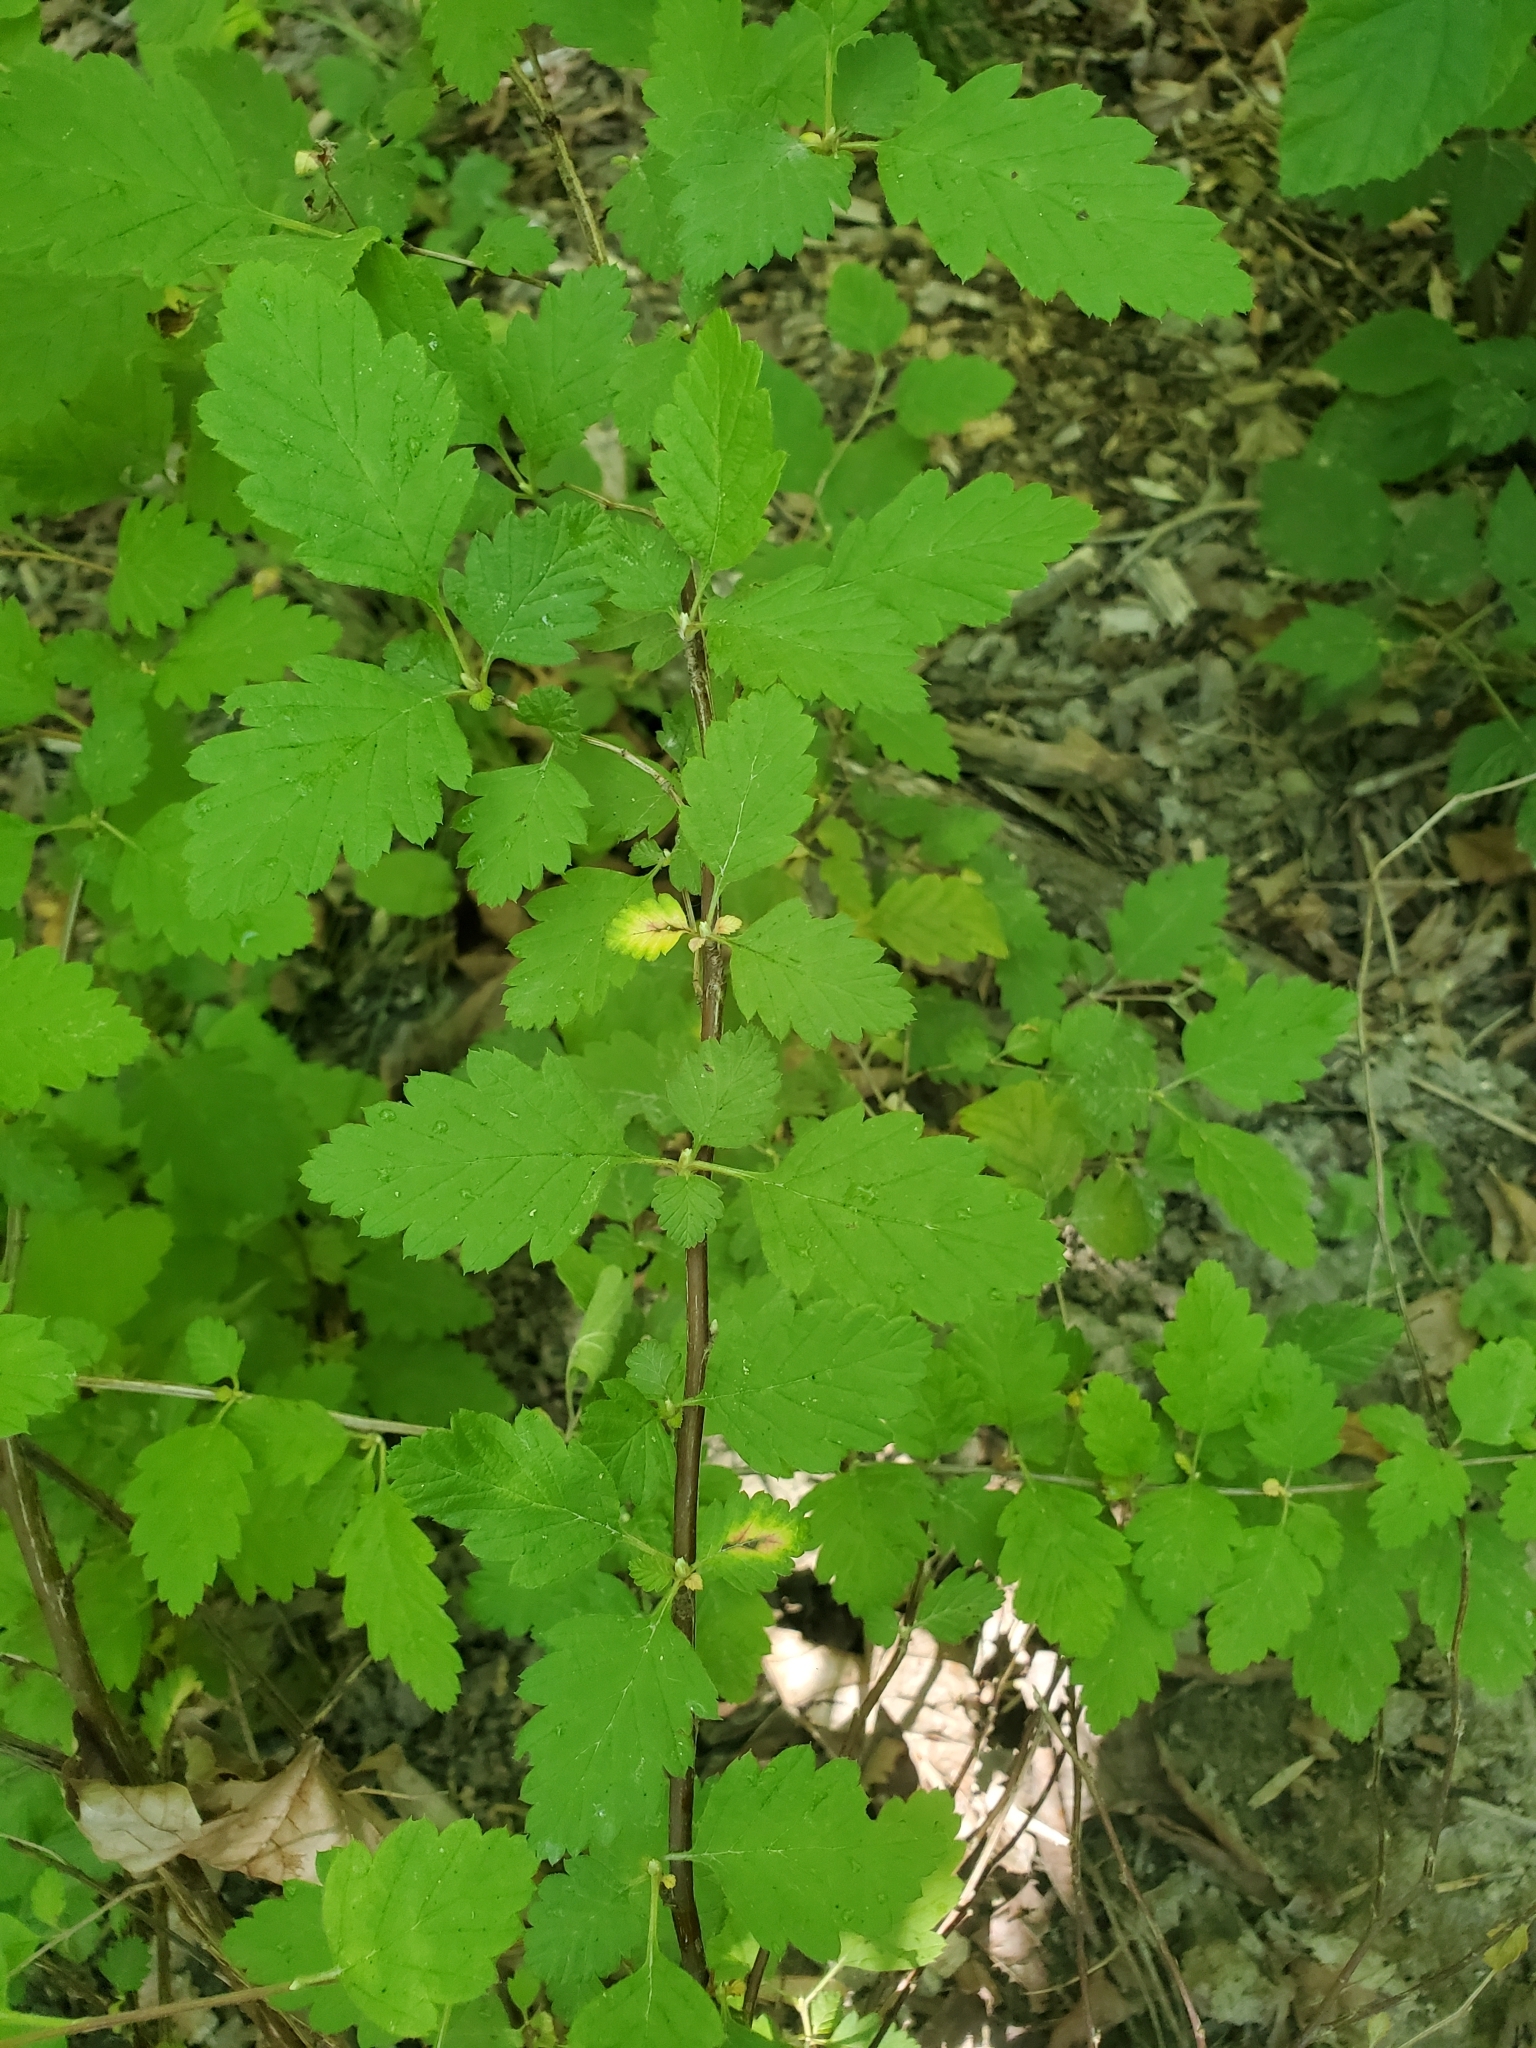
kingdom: Plantae
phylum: Tracheophyta
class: Magnoliopsida
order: Rosales
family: Rosaceae
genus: Holodiscus
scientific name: Holodiscus discolor
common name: Oceanspray
